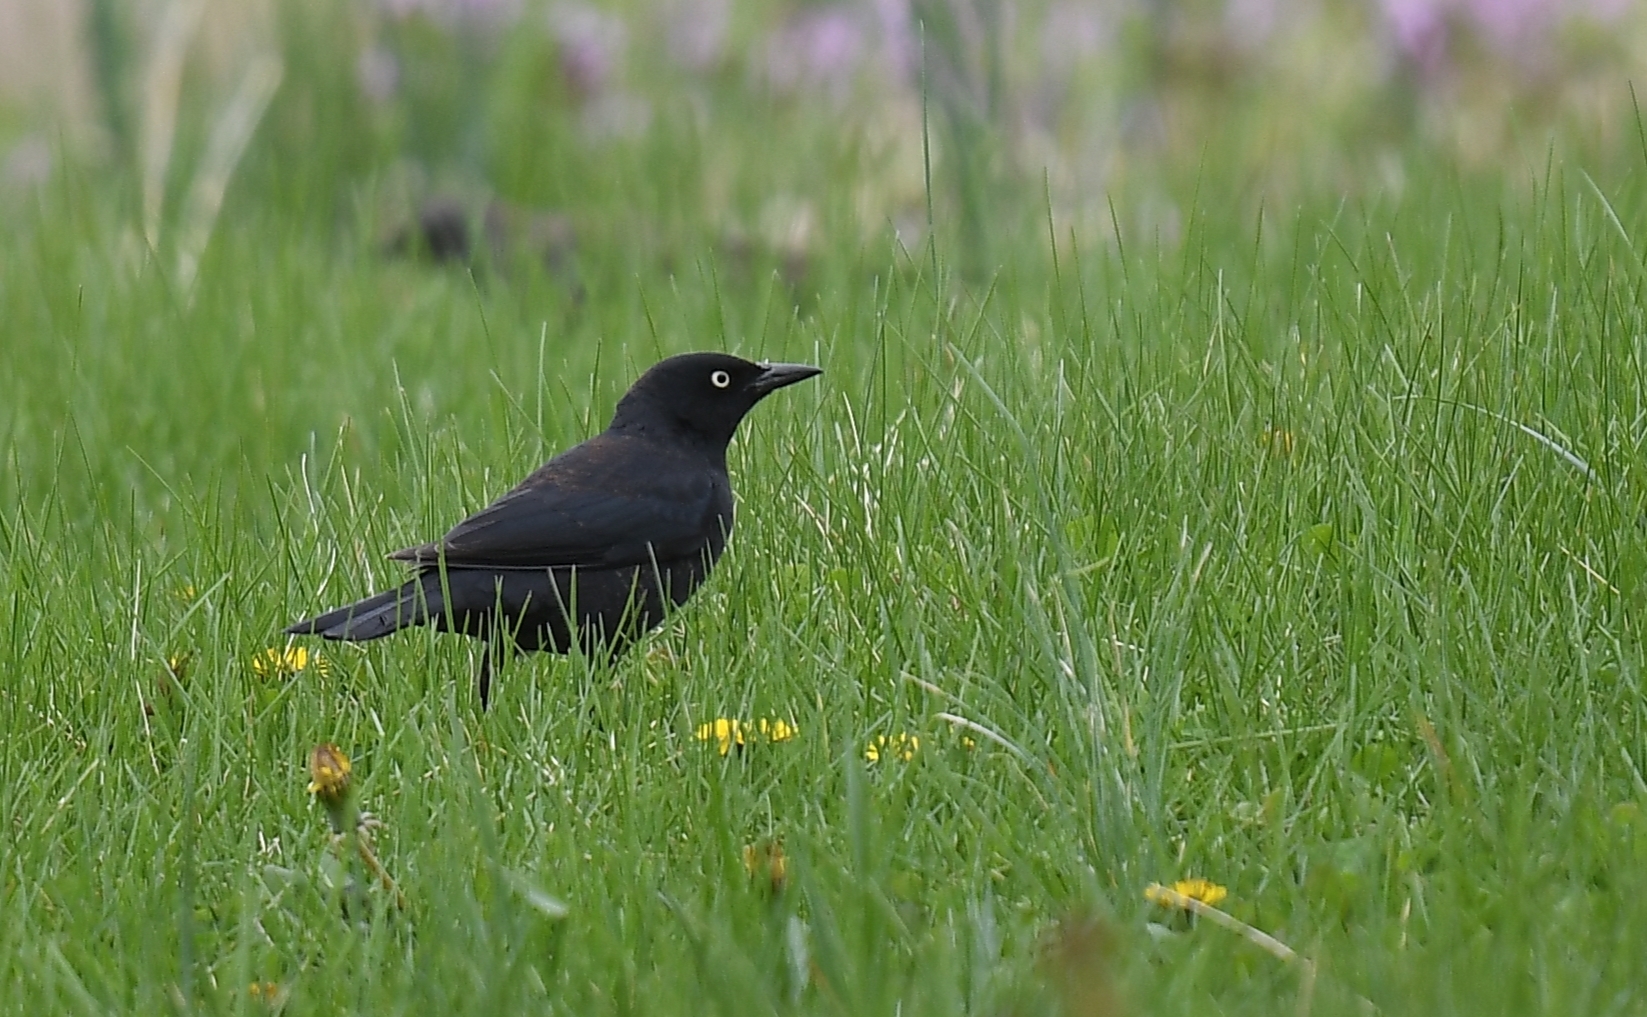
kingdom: Animalia
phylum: Chordata
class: Aves
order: Passeriformes
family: Icteridae
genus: Euphagus
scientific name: Euphagus carolinus
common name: Rusty blackbird
